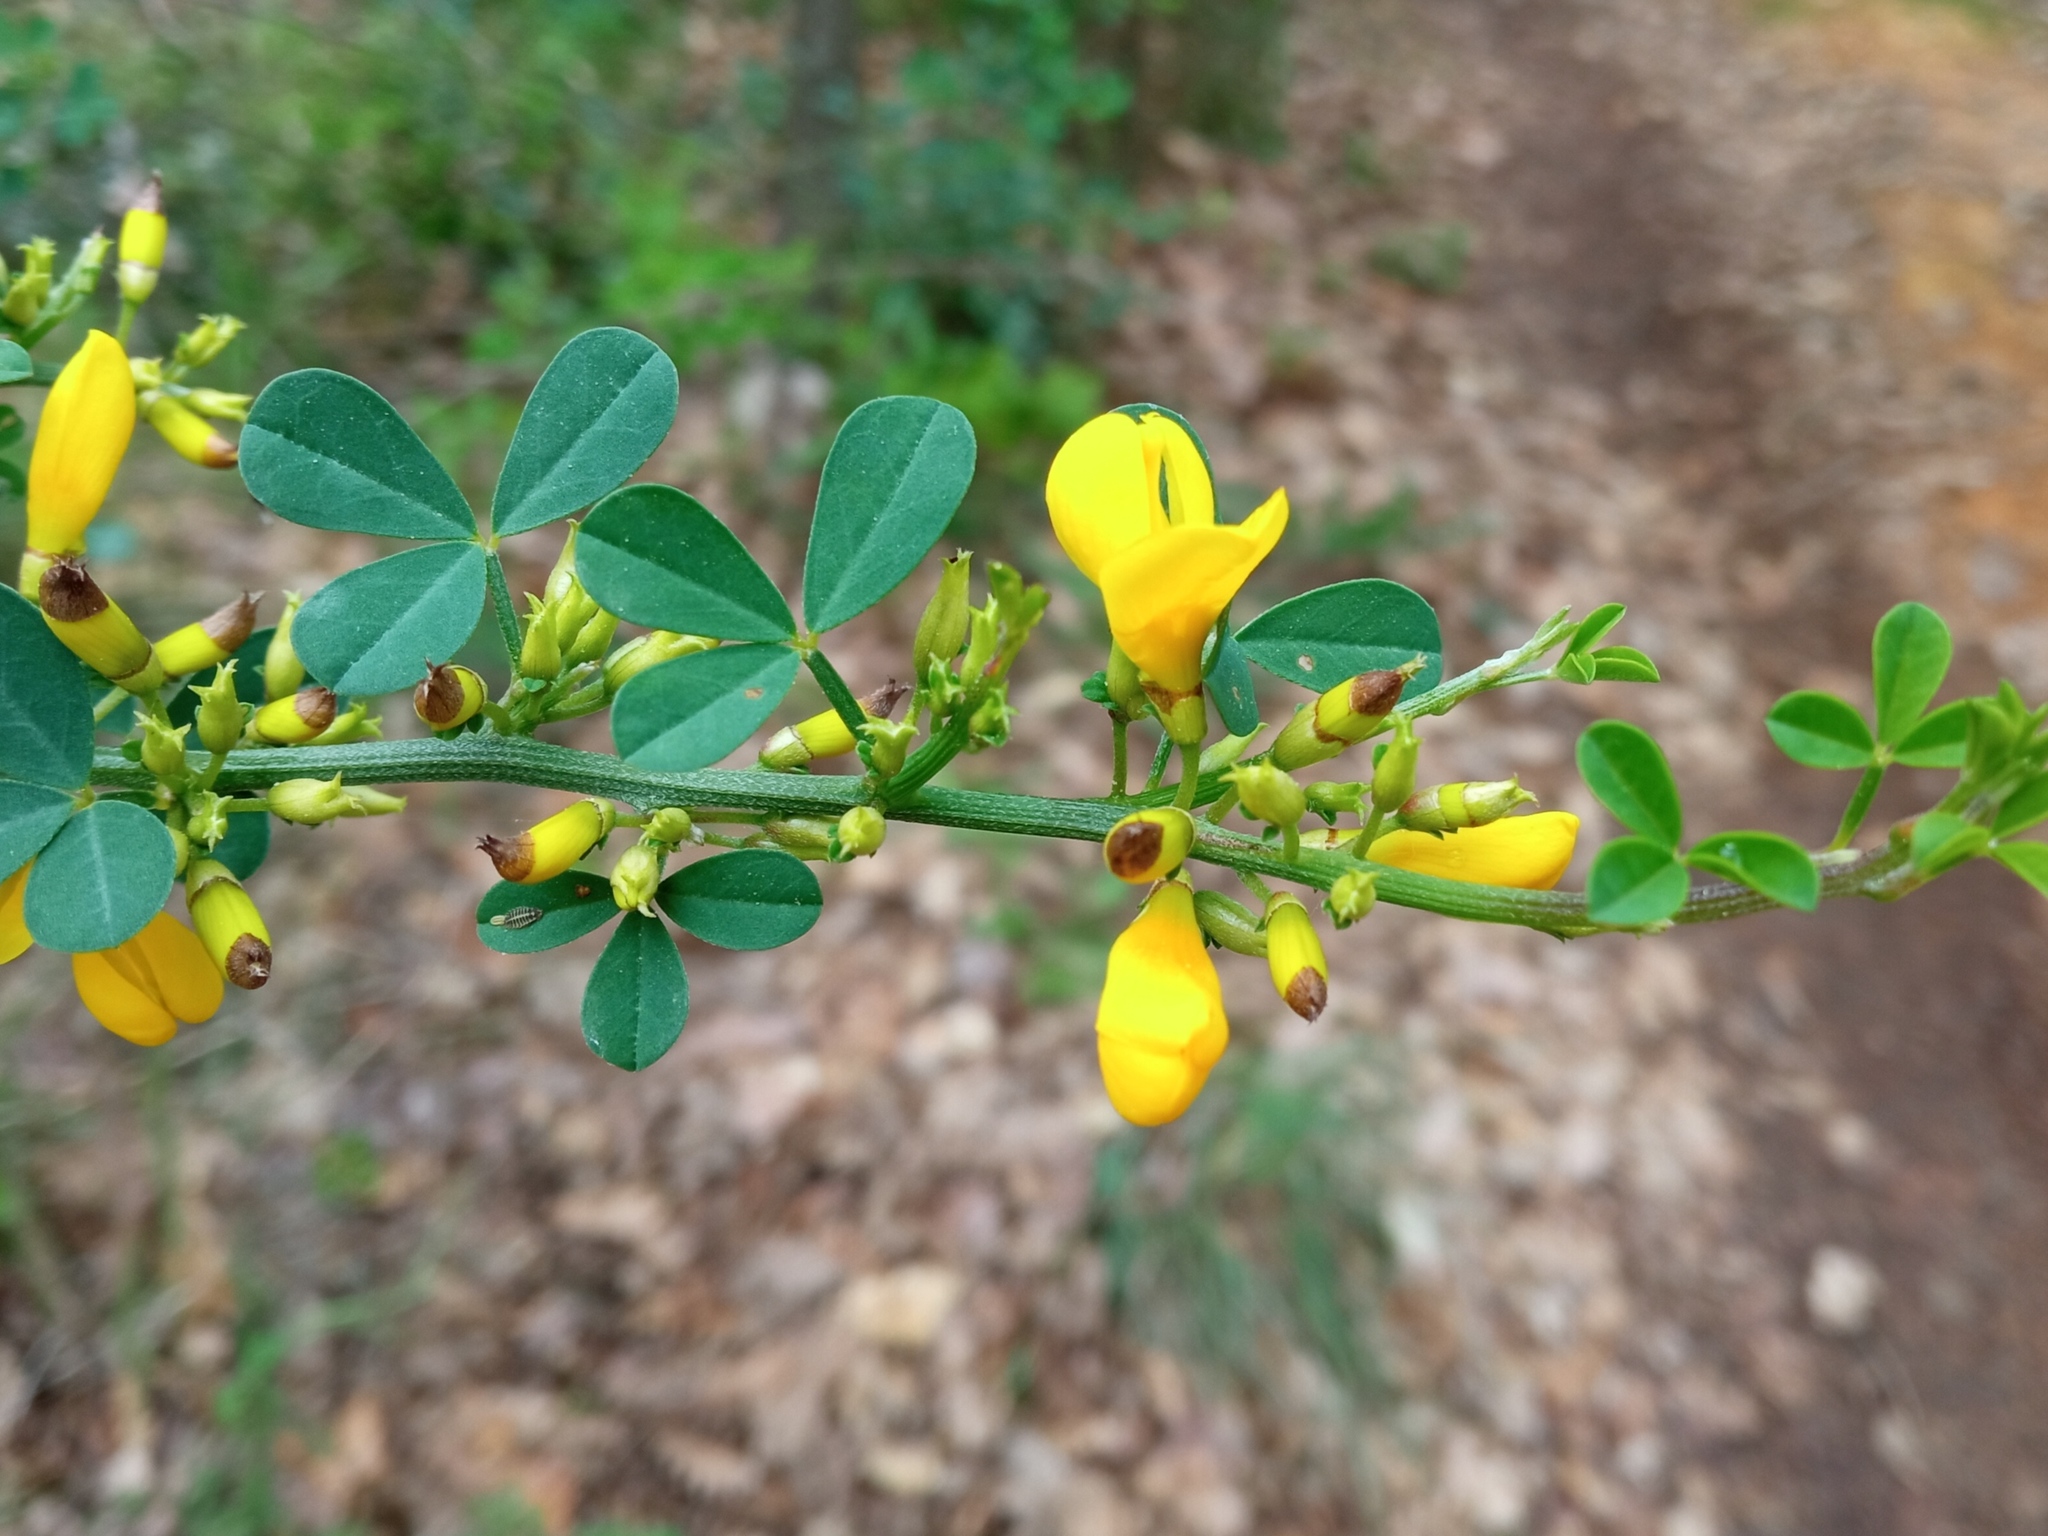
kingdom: Plantae
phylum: Tracheophyta
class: Magnoliopsida
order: Fabales
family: Fabaceae
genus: Calicotome
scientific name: Calicotome spinosa
